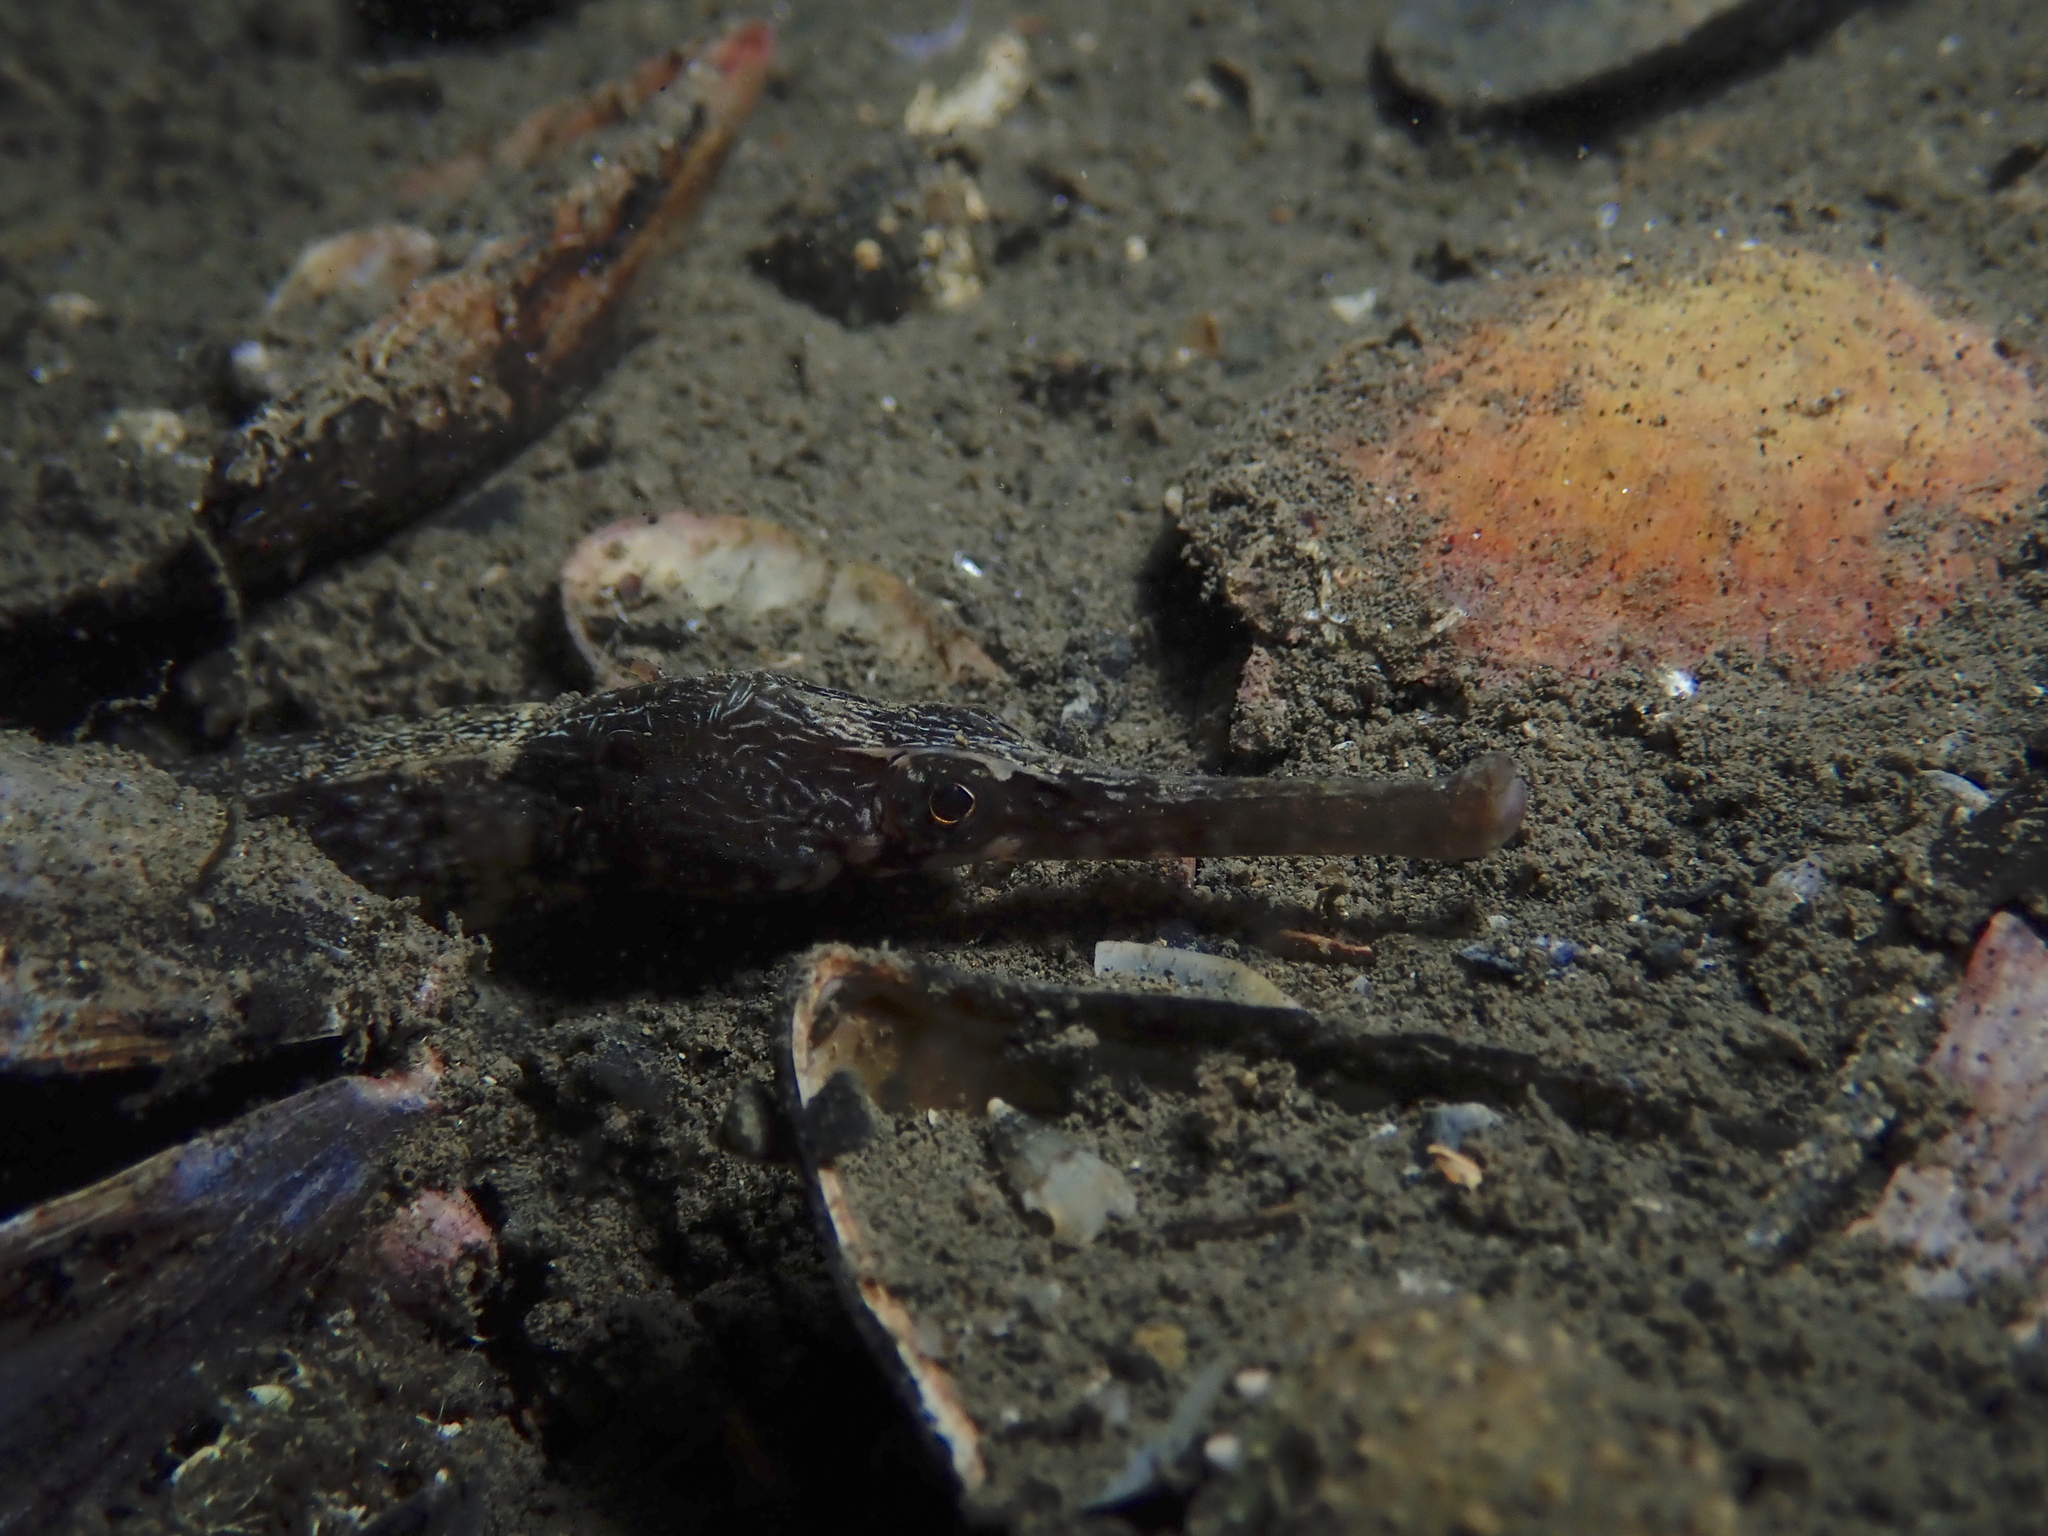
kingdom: Animalia
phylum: Chordata
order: Syngnathiformes
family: Syngnathidae
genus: Syngnathus
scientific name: Syngnathus tenuirostris
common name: Narrow-snouted pipefish
